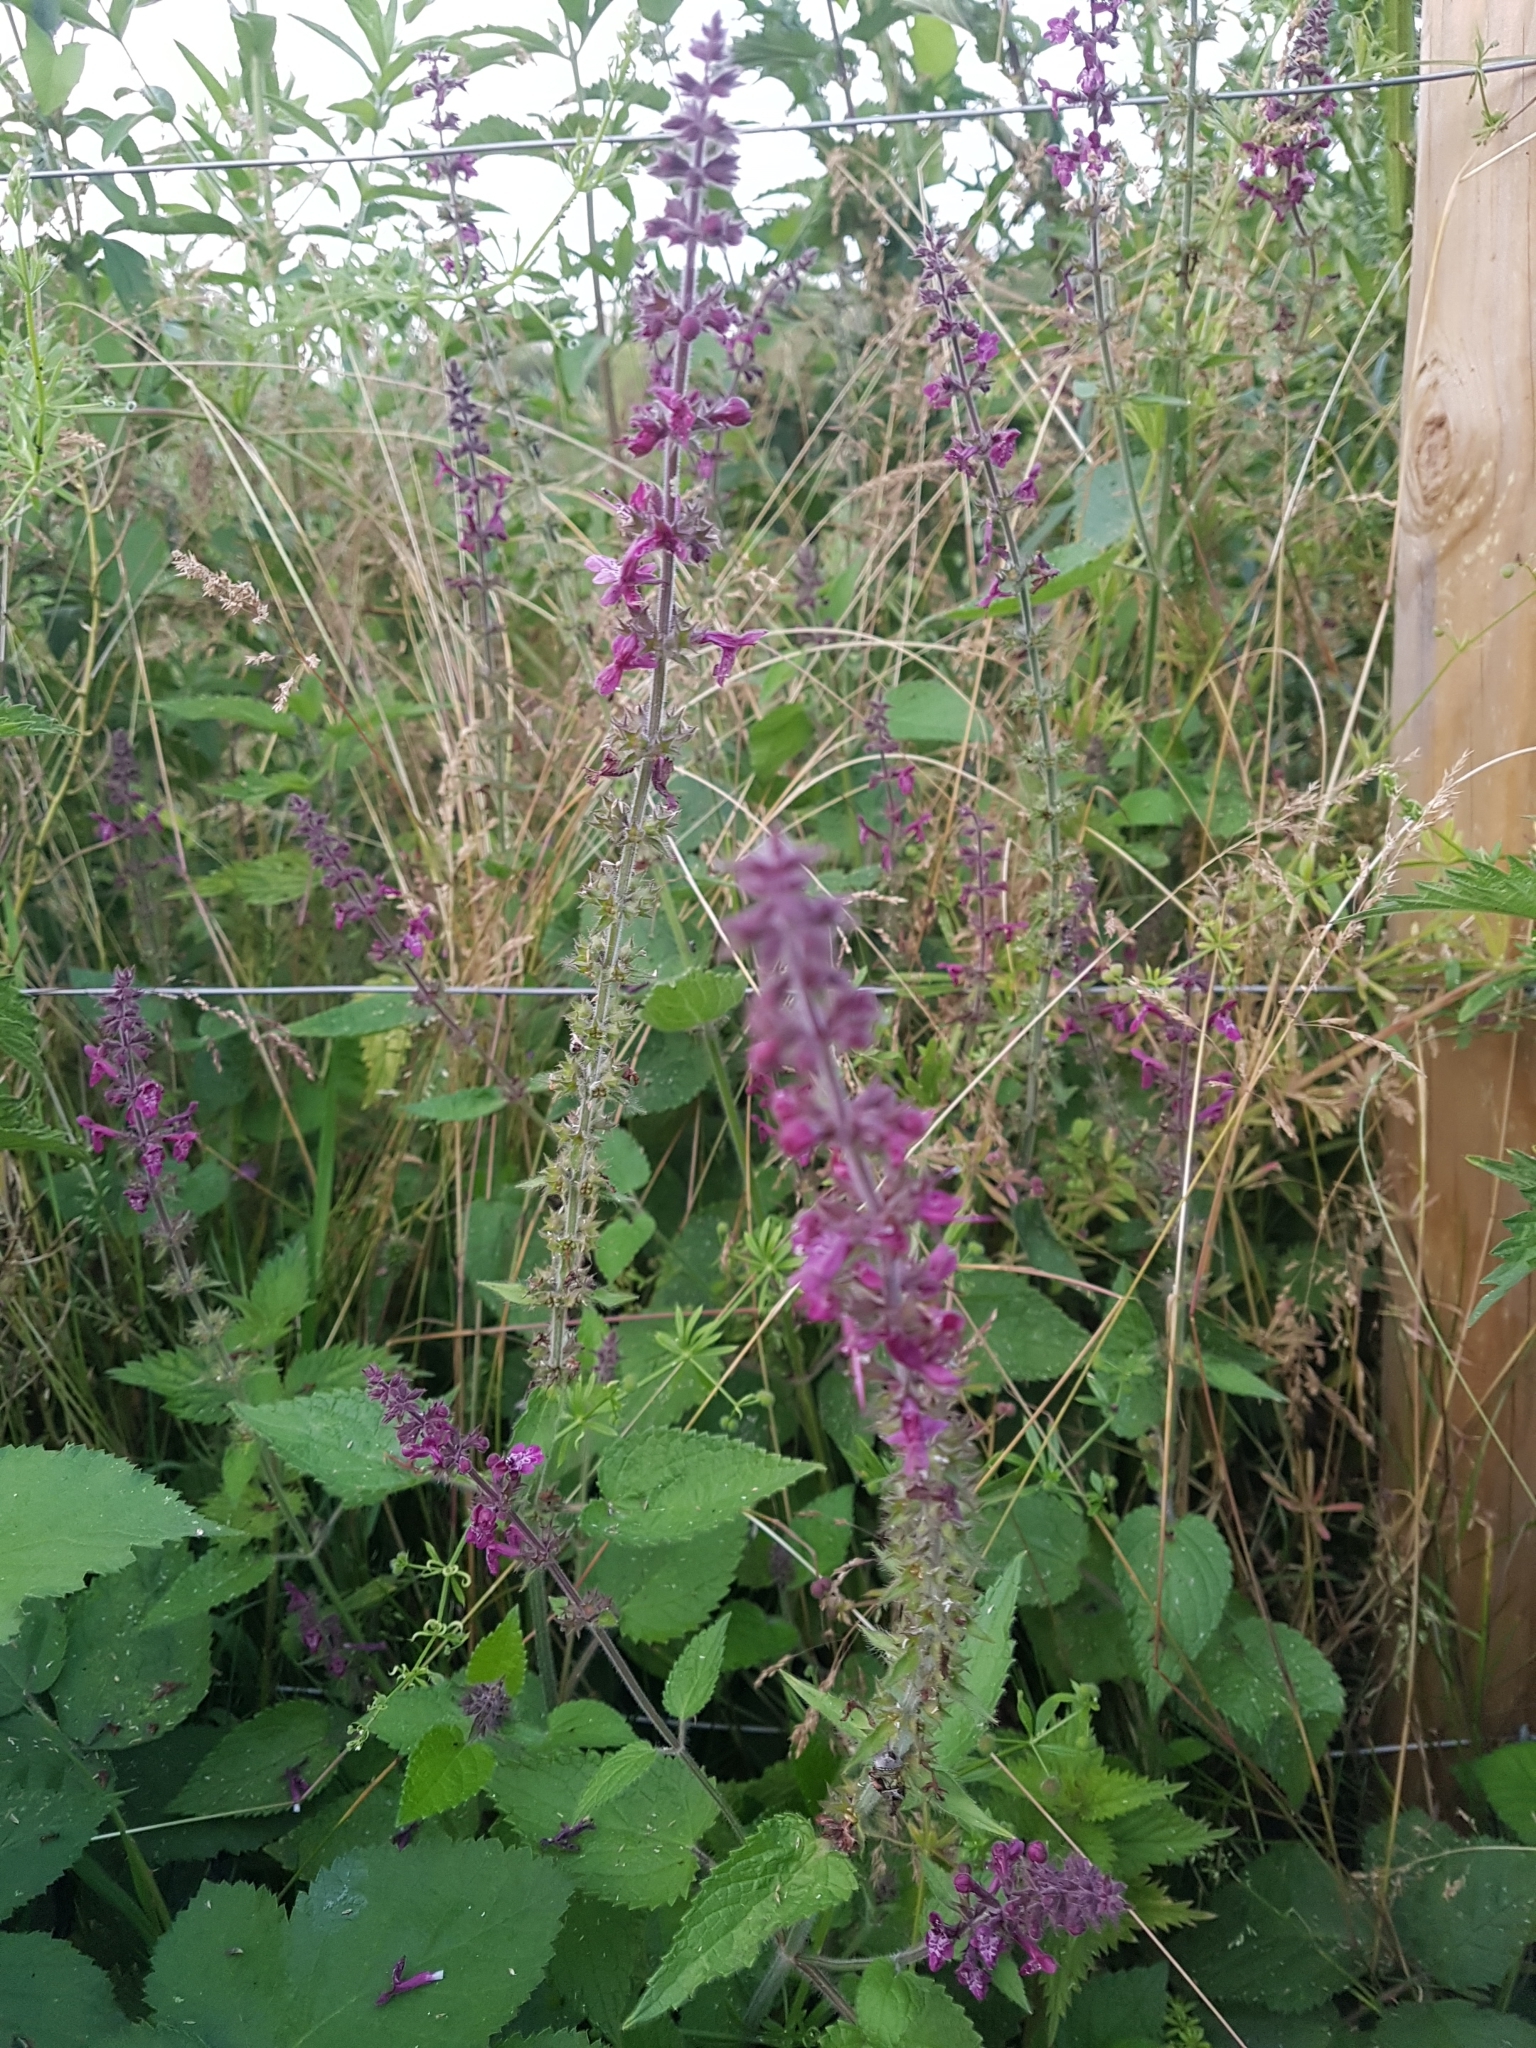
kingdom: Plantae
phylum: Tracheophyta
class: Magnoliopsida
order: Lamiales
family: Lamiaceae
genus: Stachys
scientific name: Stachys sylvatica
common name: Hedge woundwort
